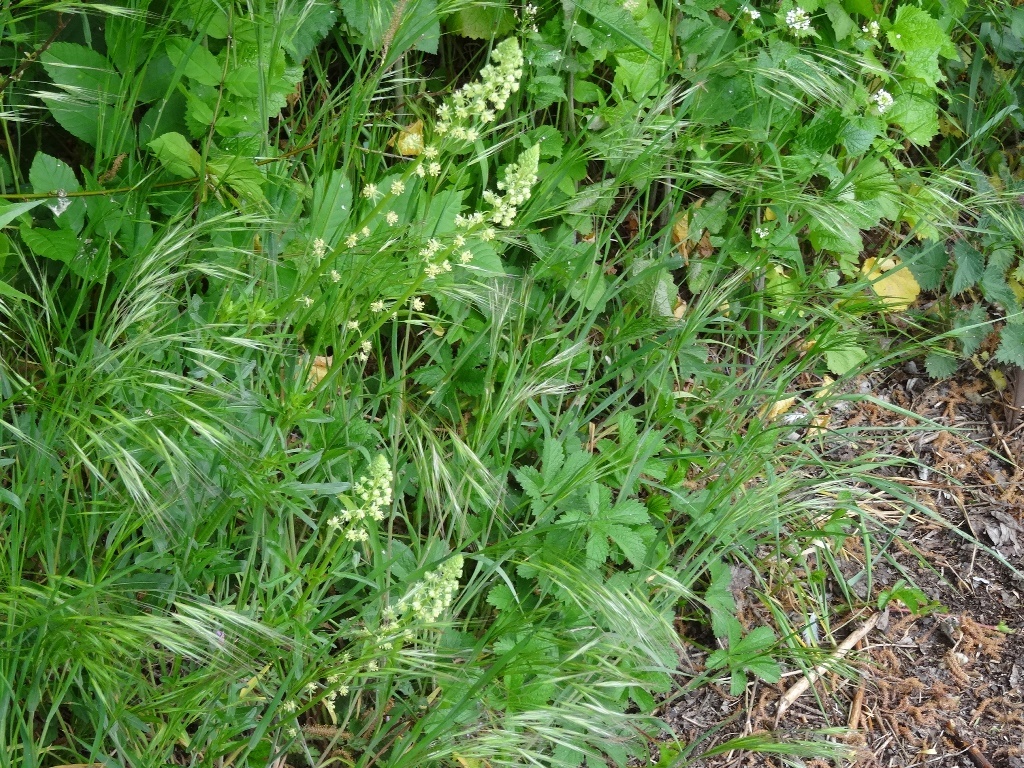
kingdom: Plantae
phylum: Tracheophyta
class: Magnoliopsida
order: Brassicales
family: Resedaceae
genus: Reseda
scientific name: Reseda lutea
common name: Wild mignonette
